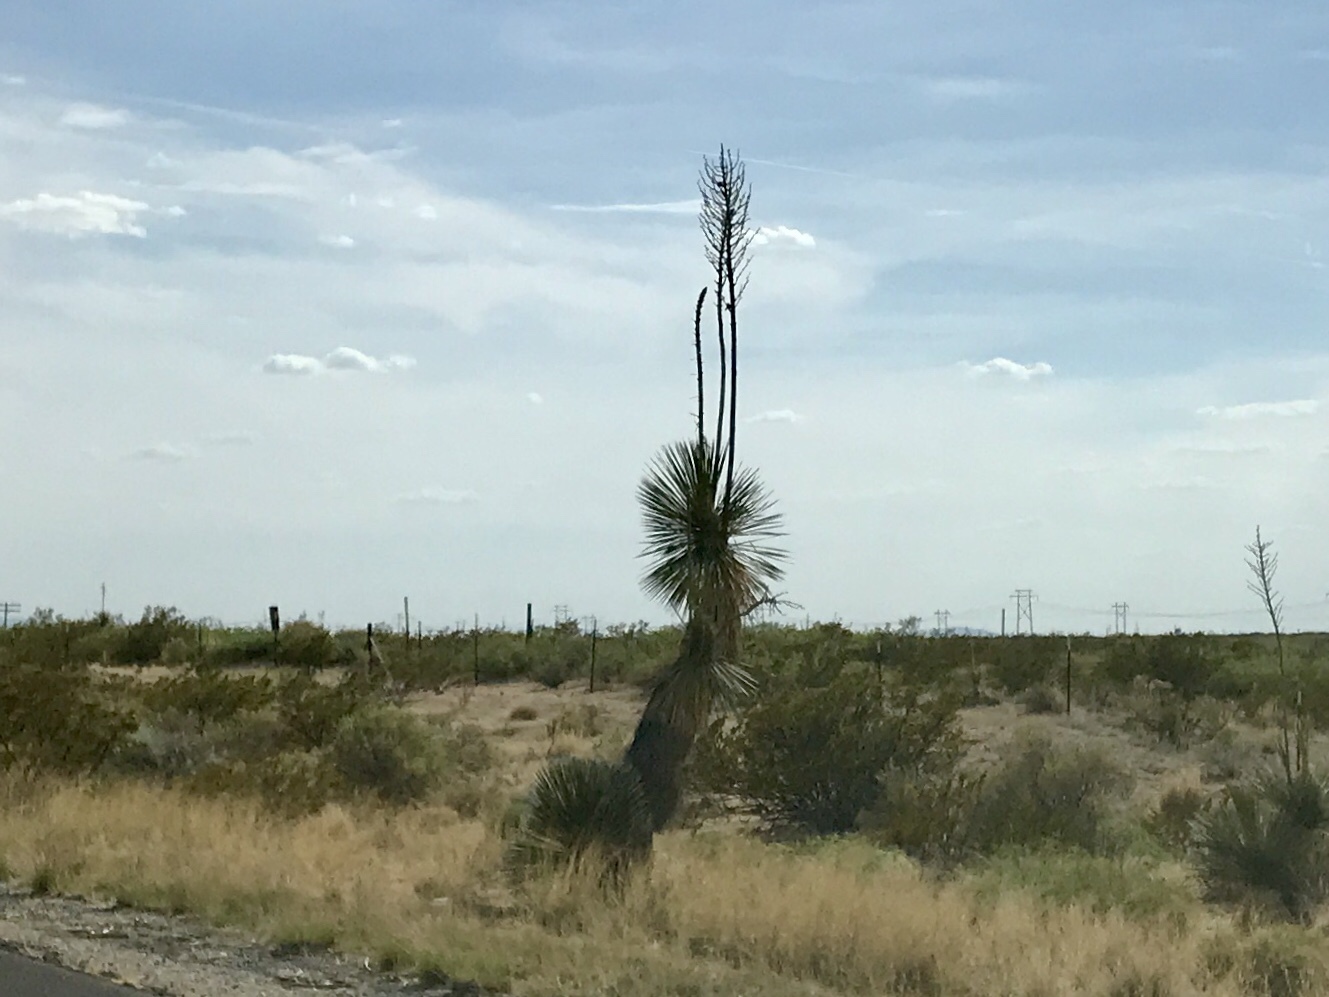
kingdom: Plantae
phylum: Tracheophyta
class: Liliopsida
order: Asparagales
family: Asparagaceae
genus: Yucca
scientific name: Yucca elata
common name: Palmella
